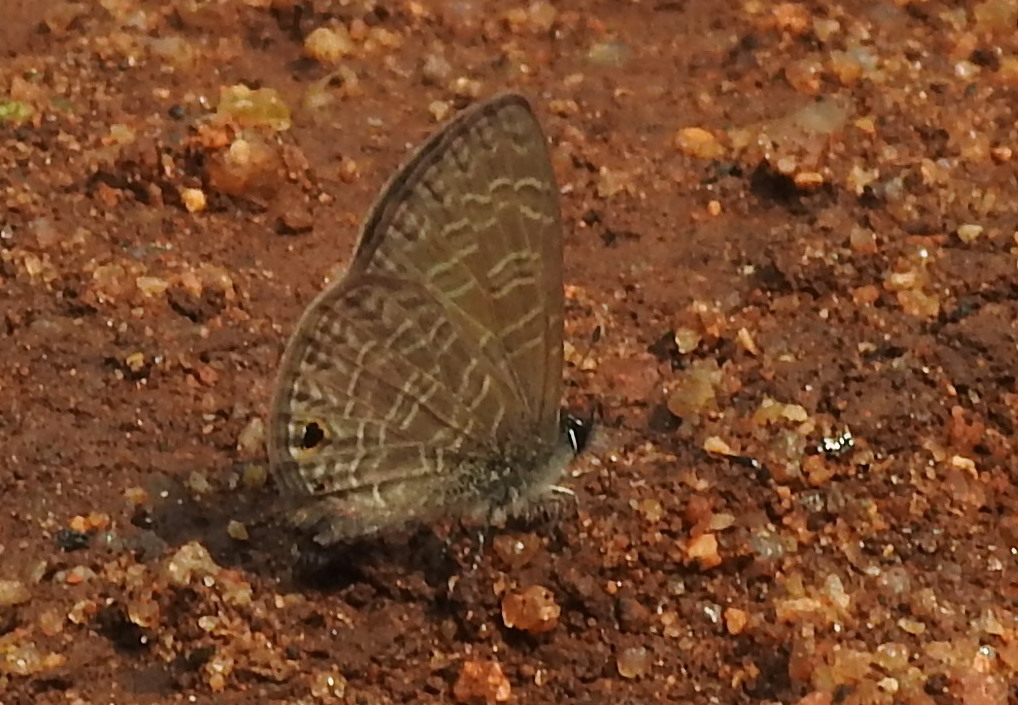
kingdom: Animalia
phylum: Arthropoda
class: Insecta
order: Lepidoptera
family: Lycaenidae
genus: Prosotas
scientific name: Prosotas dubiosa
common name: Tailless lineblue
